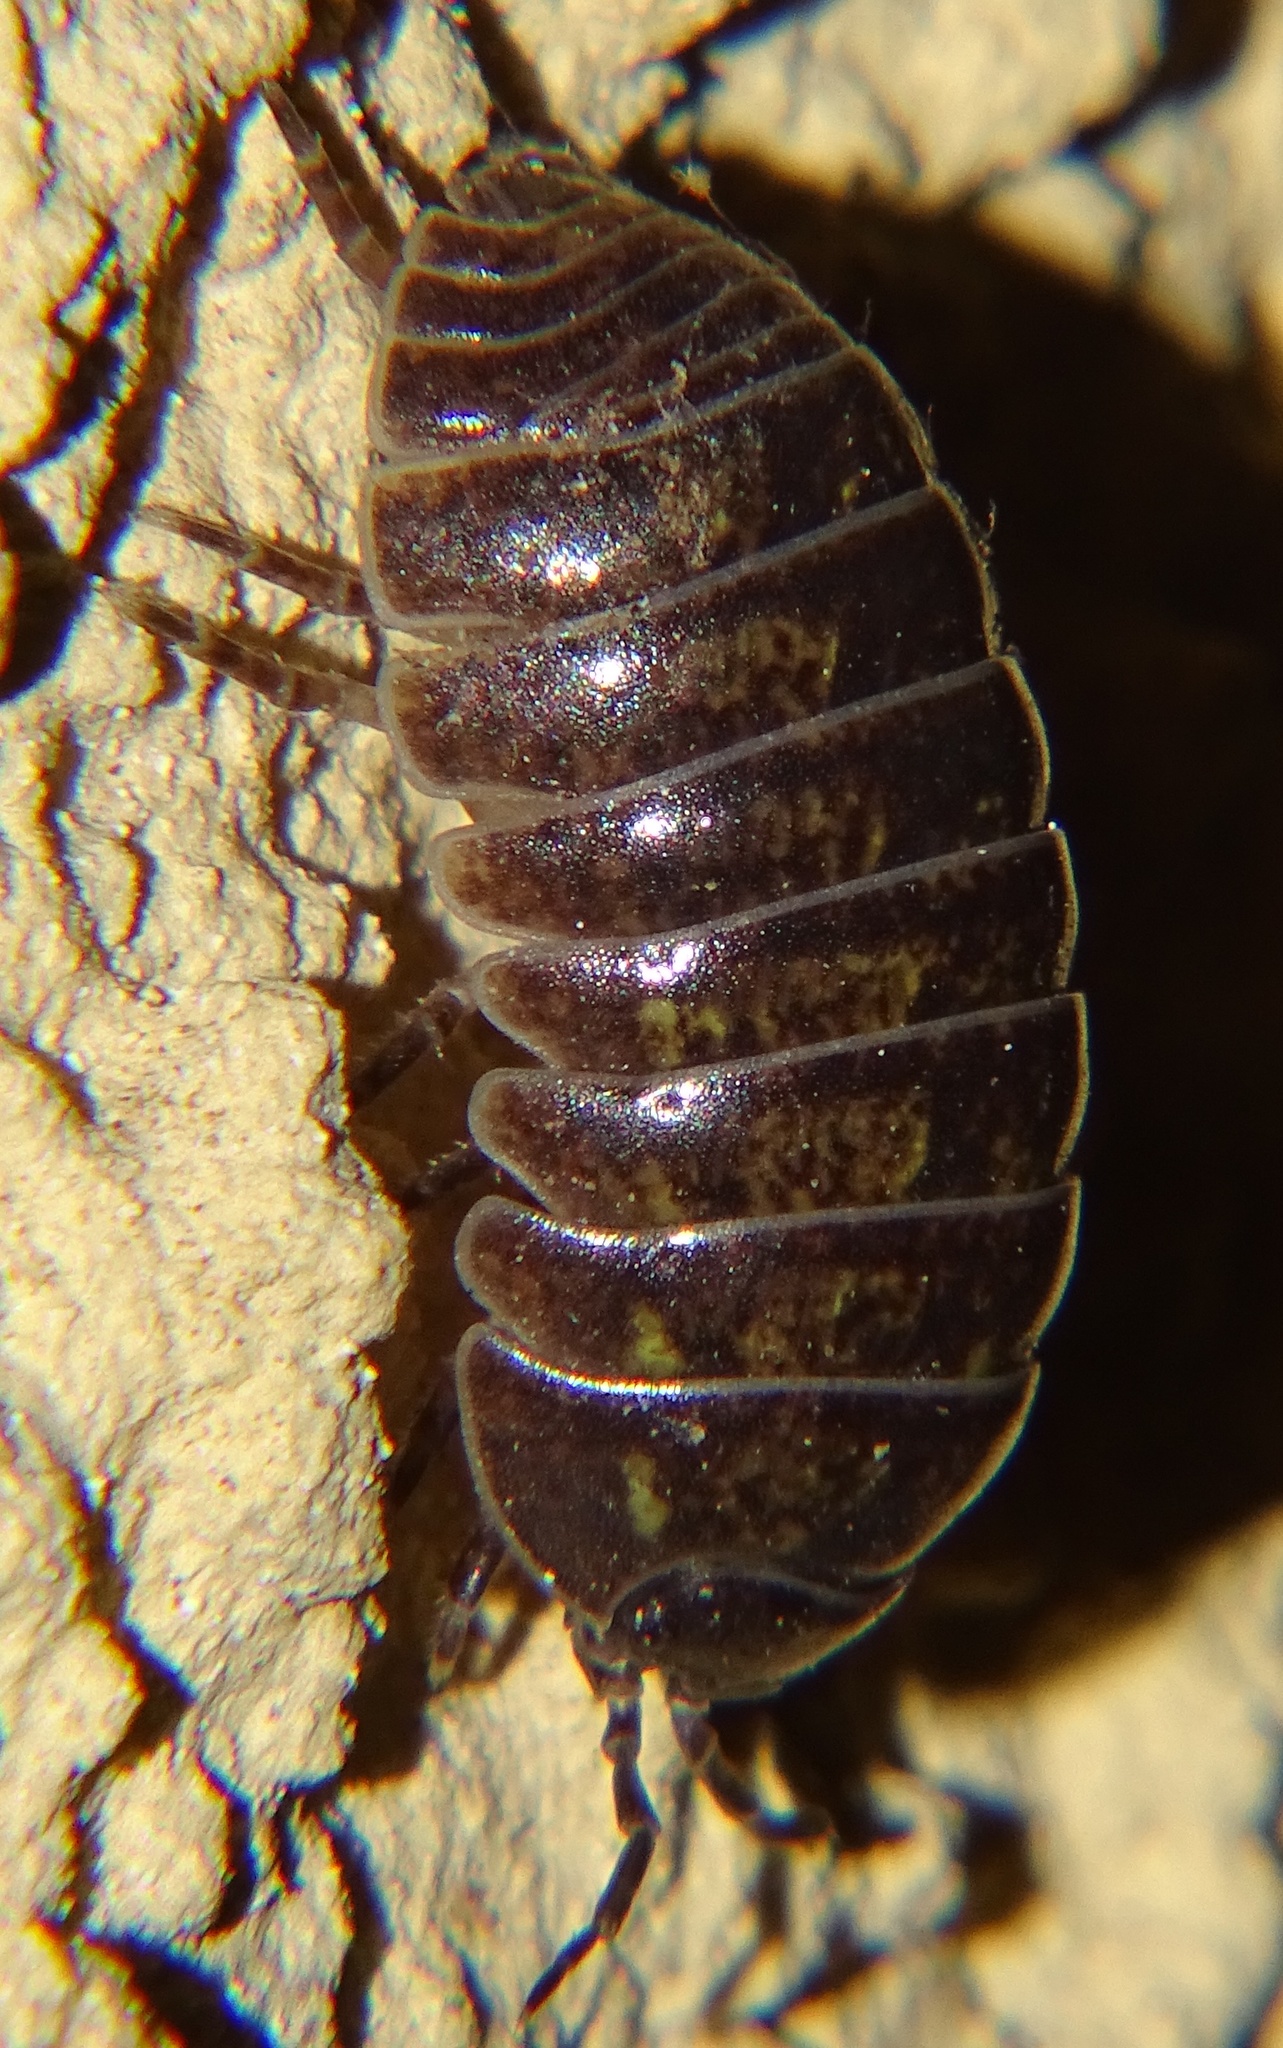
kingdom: Animalia
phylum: Arthropoda
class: Malacostraca
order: Isopoda
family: Armadillidiidae
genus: Armadillidium
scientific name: Armadillidium vulgare
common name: Common pill woodlouse
